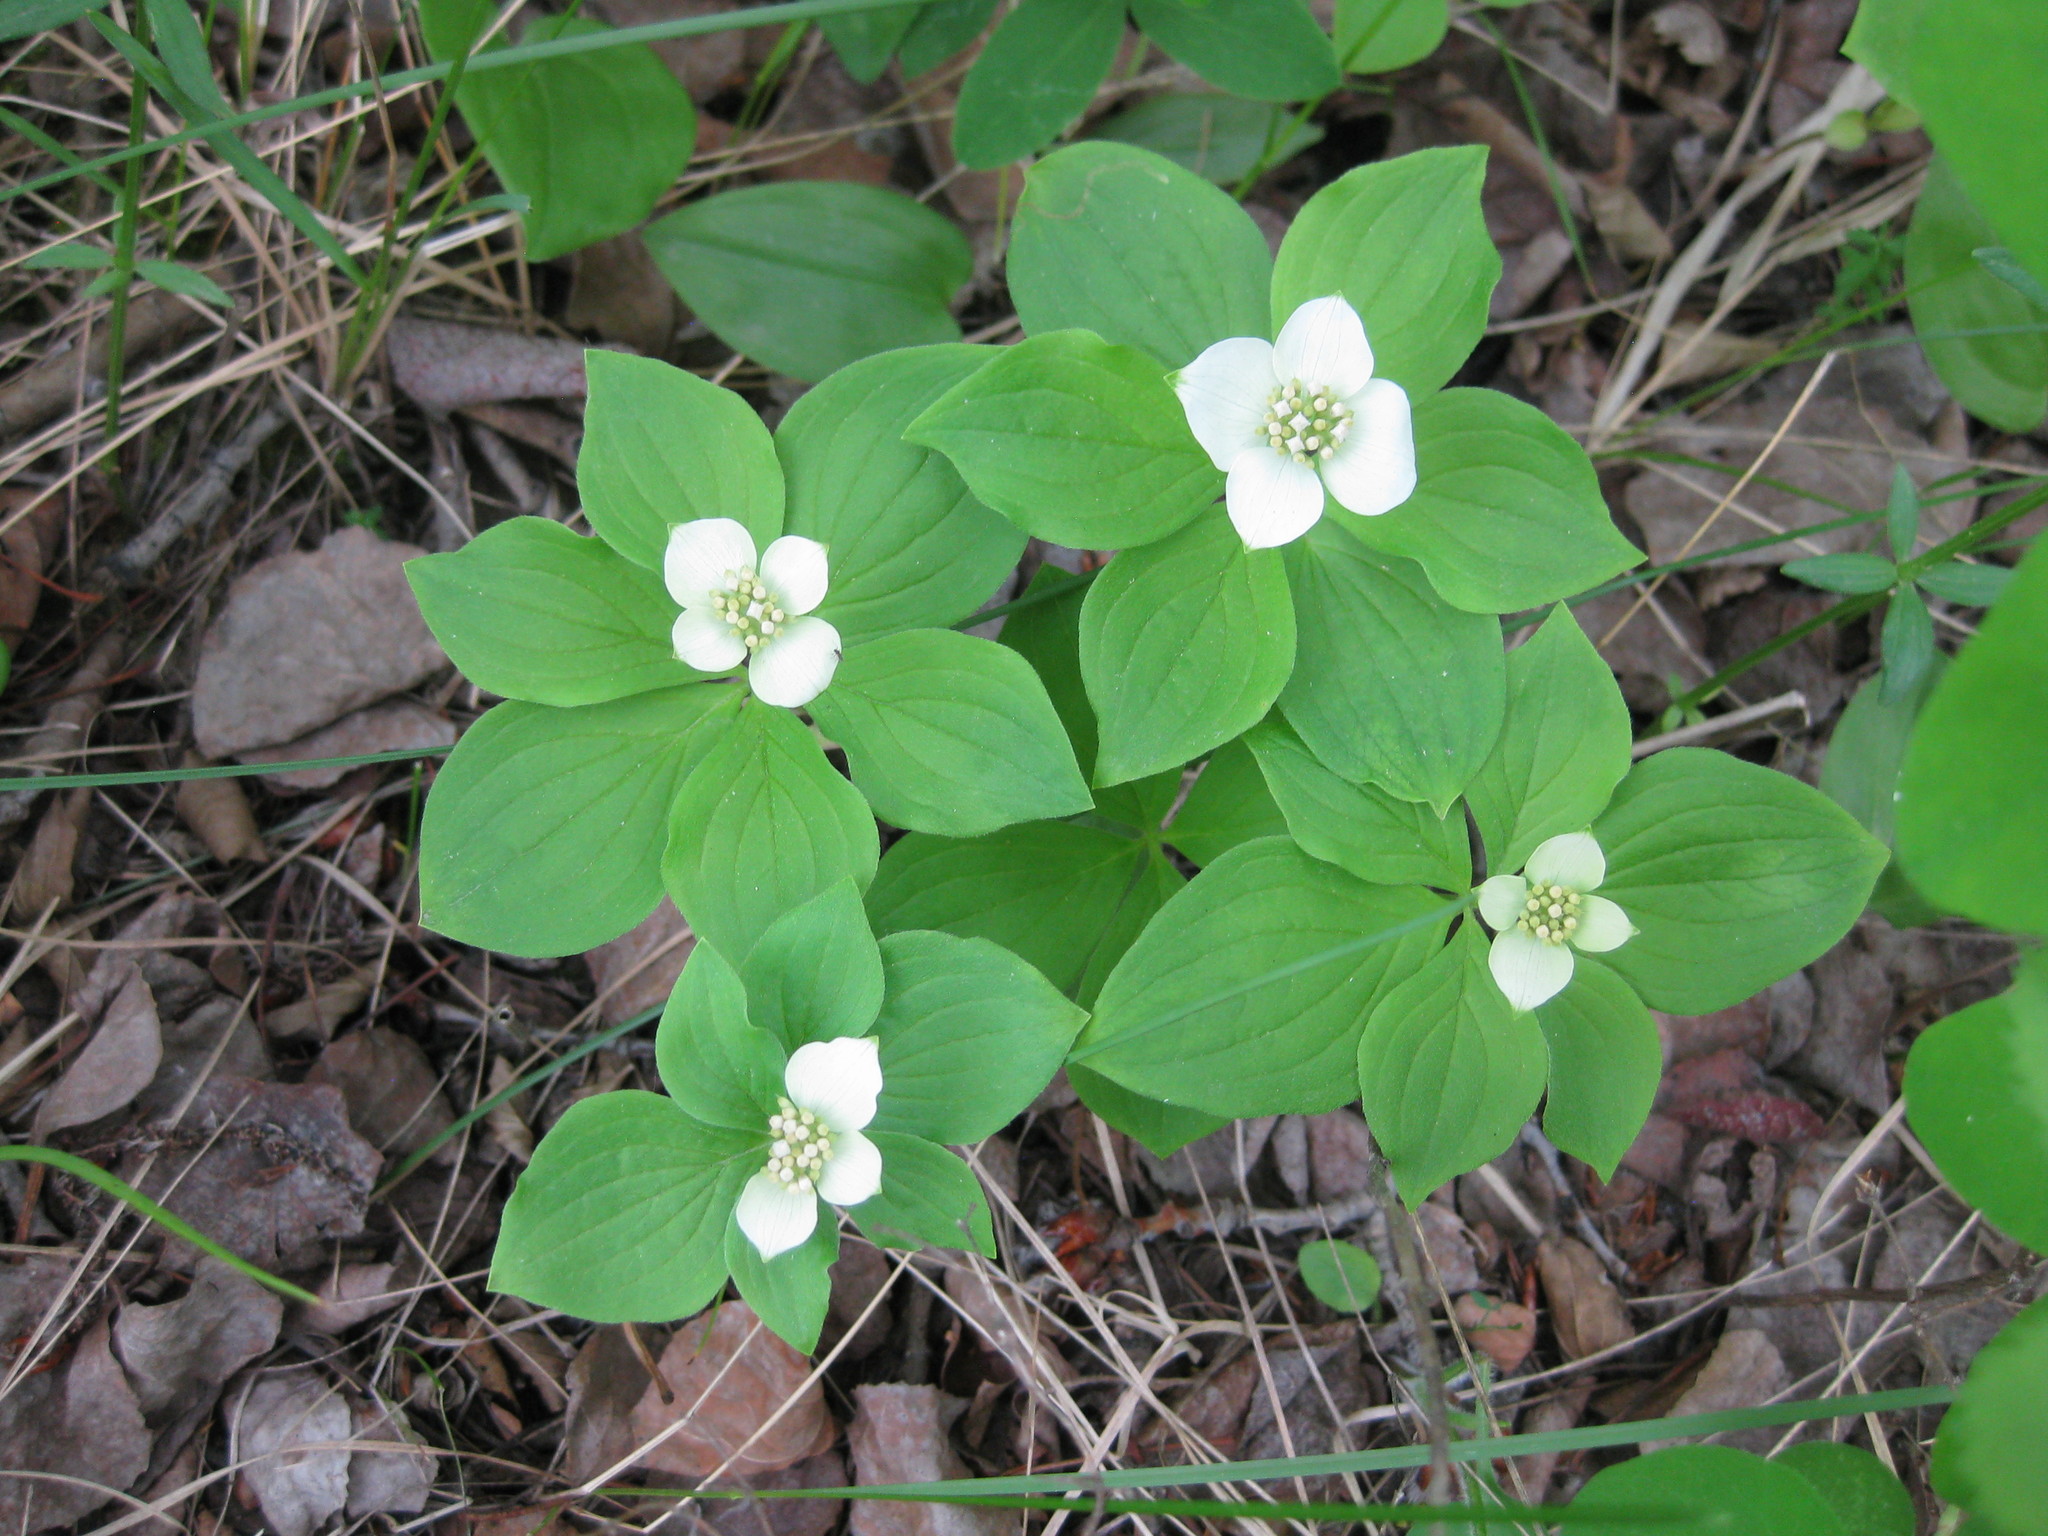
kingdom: Plantae
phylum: Tracheophyta
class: Magnoliopsida
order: Cornales
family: Cornaceae
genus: Cornus
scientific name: Cornus canadensis
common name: Creeping dogwood
